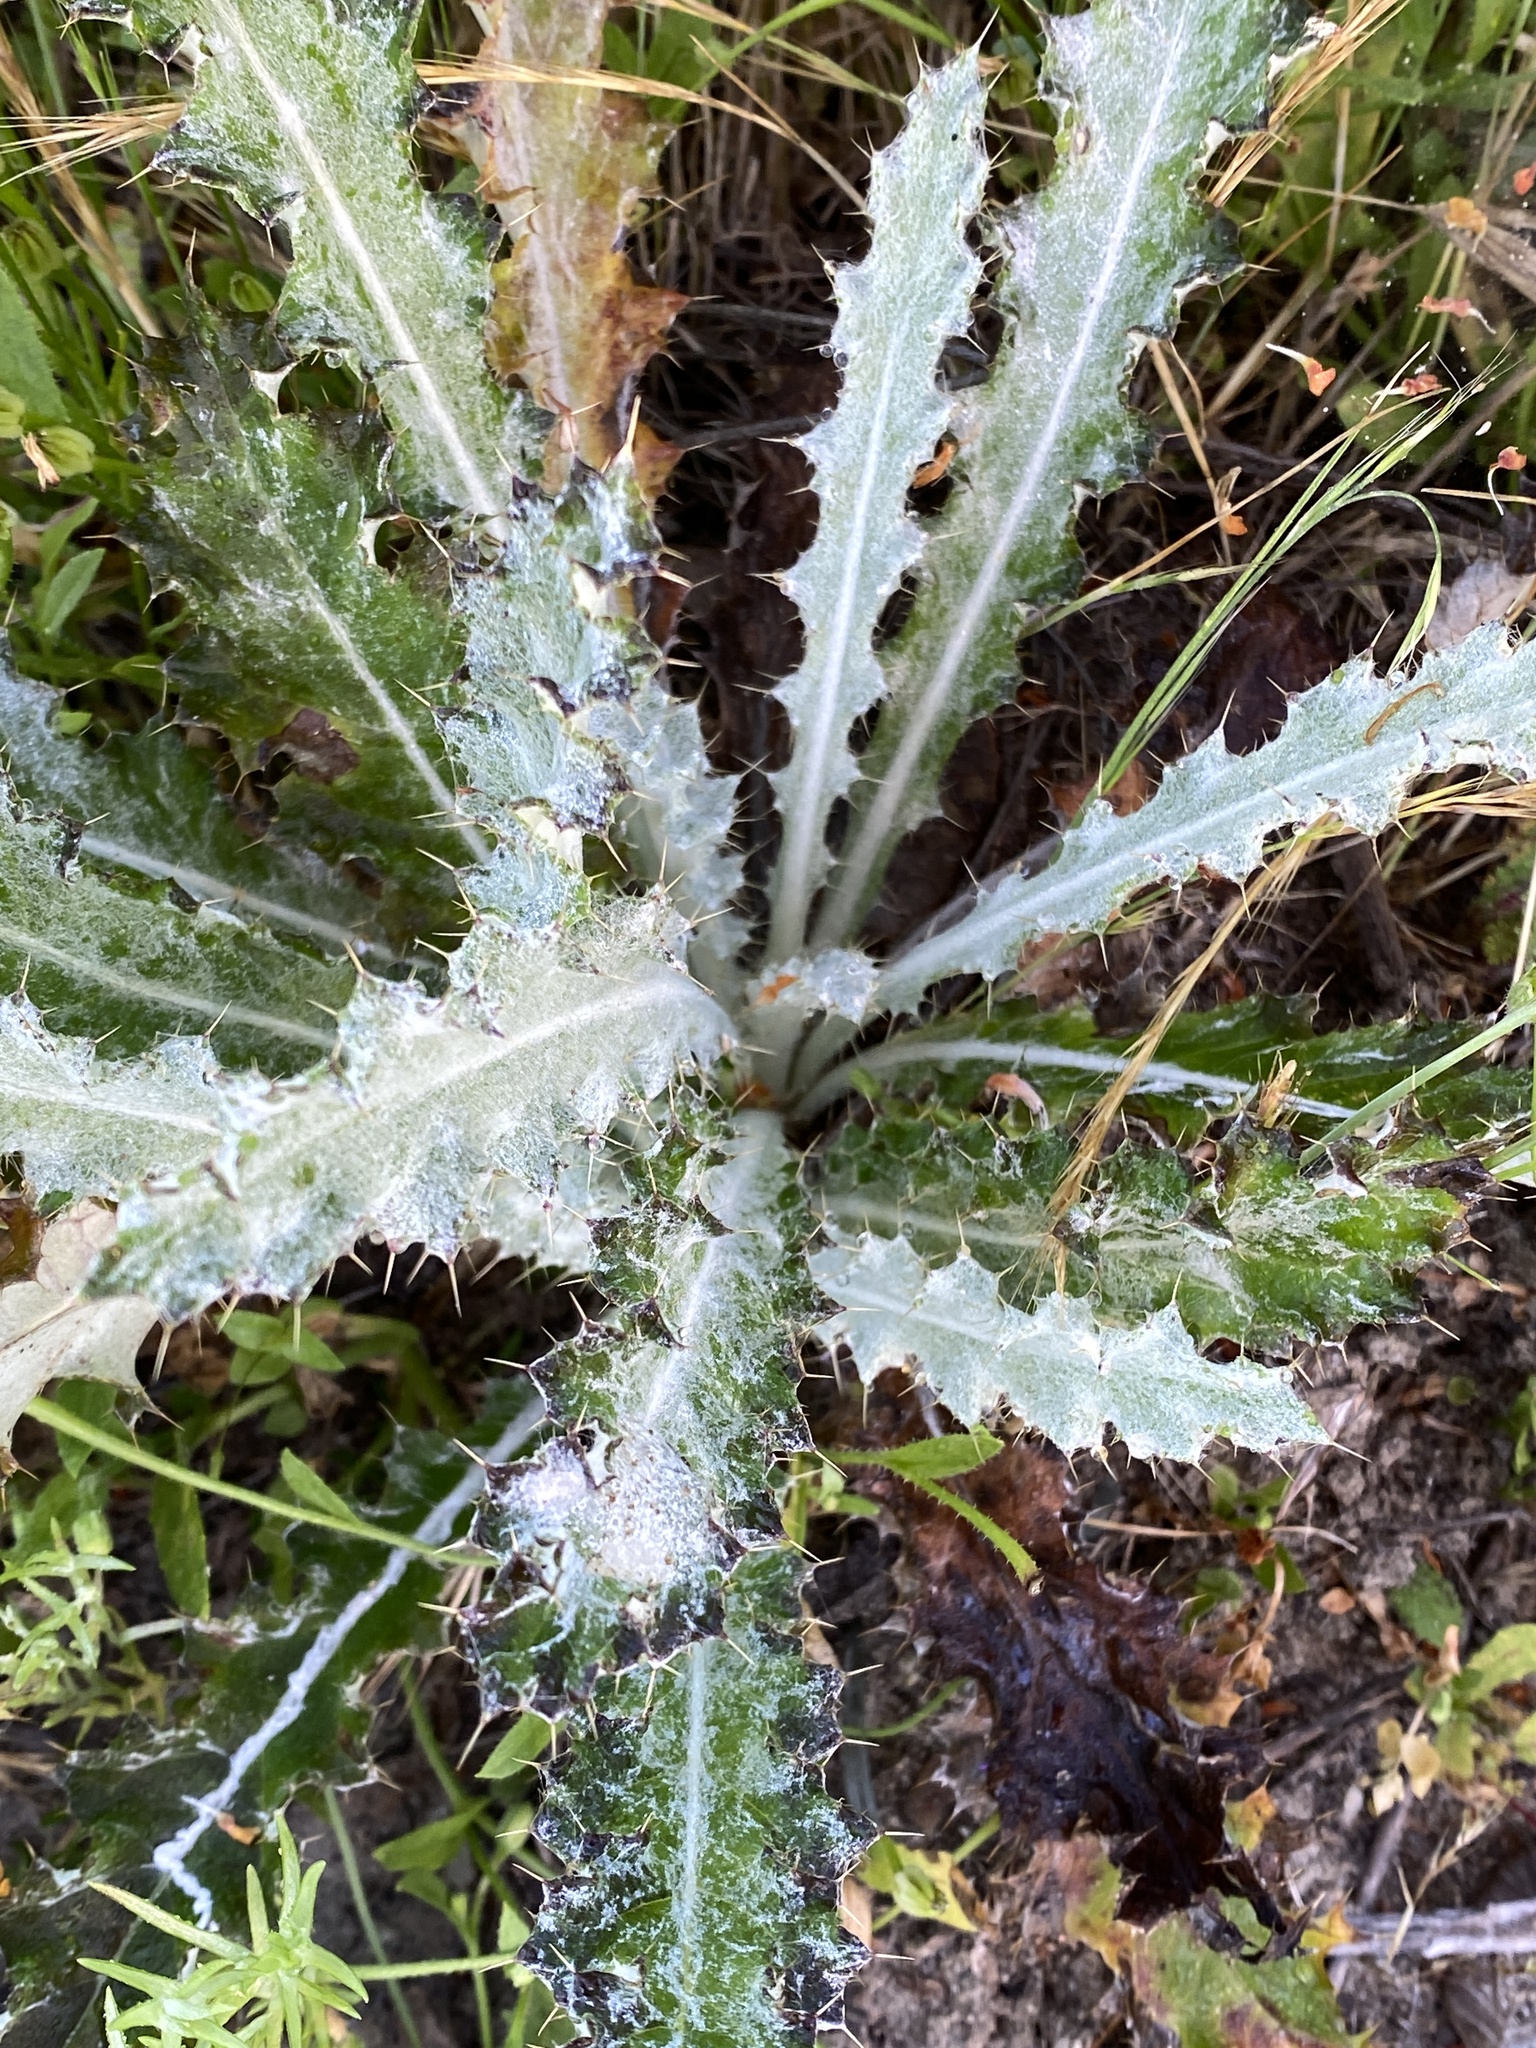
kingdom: Plantae
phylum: Tracheophyta
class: Magnoliopsida
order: Asterales
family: Asteraceae
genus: Cirsium
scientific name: Cirsium occidentale
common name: Western thistle
